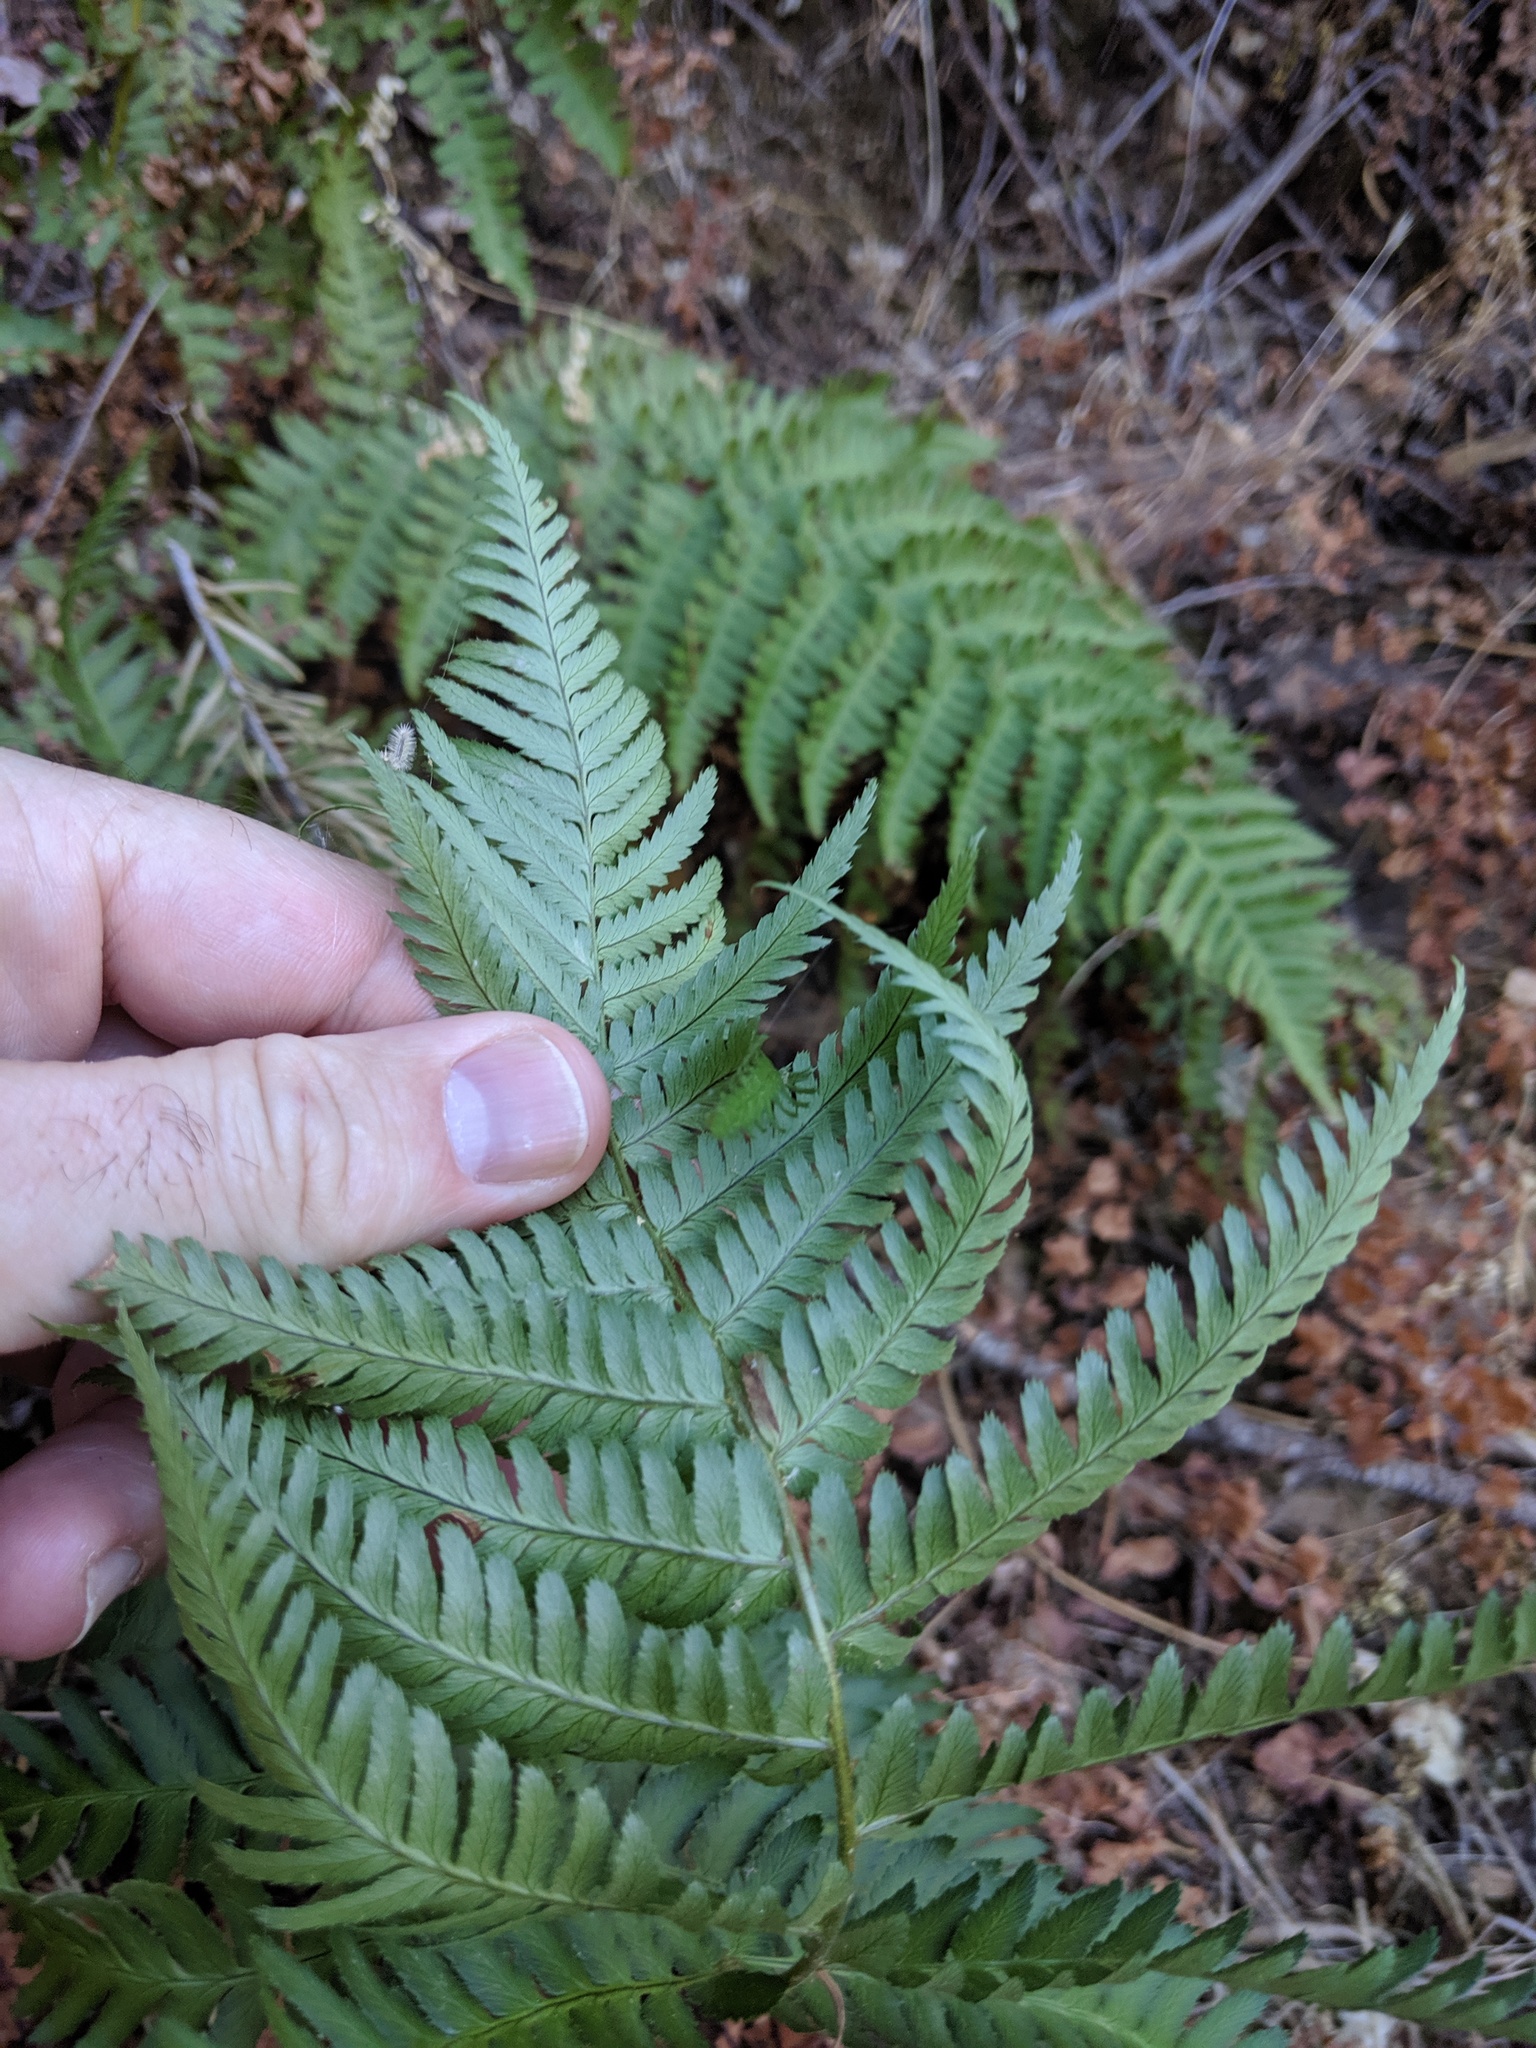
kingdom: Plantae
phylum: Tracheophyta
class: Polypodiopsida
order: Polypodiales
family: Dryopteridaceae
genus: Dryopteris
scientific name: Dryopteris arguta
